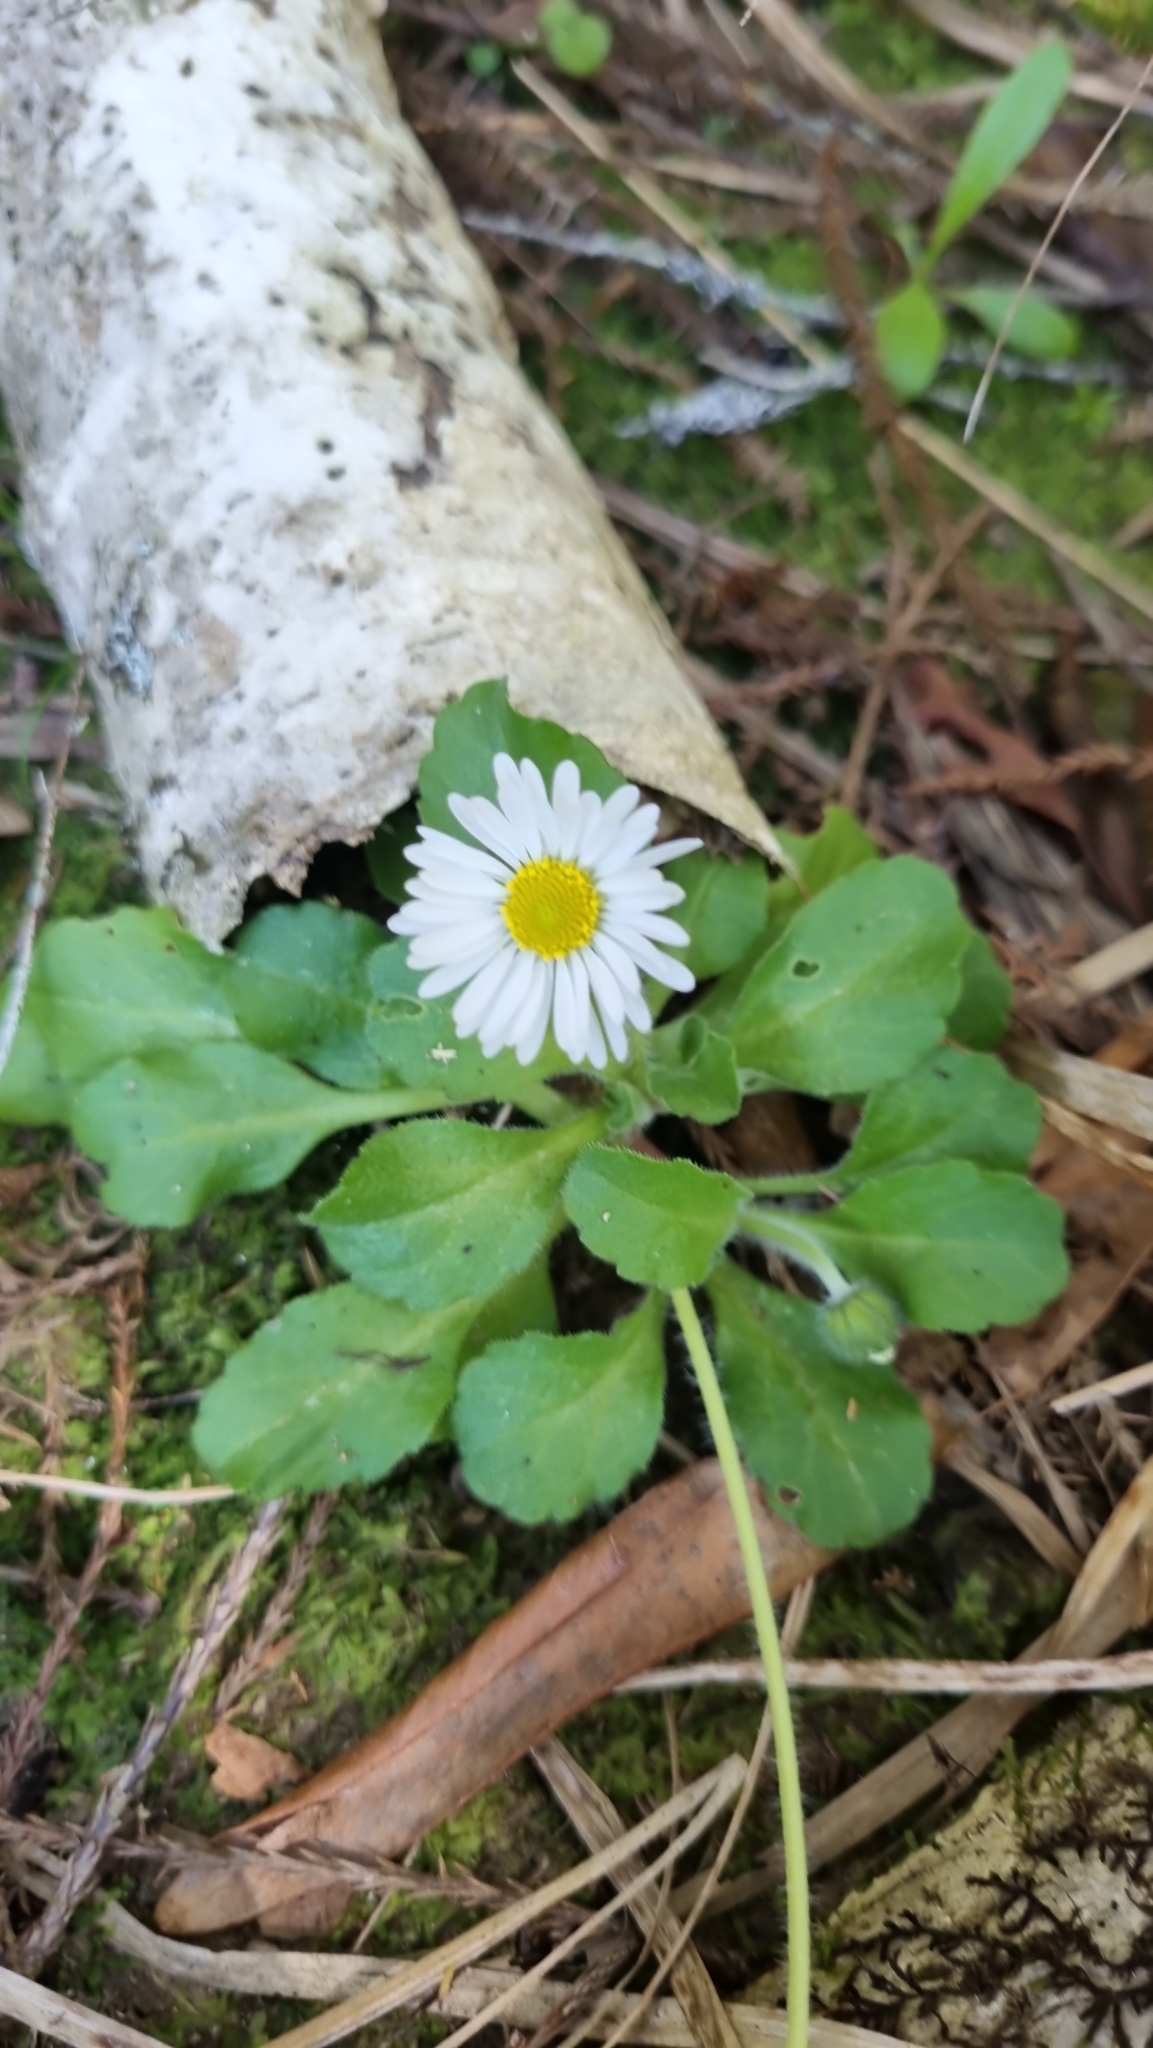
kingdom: Plantae
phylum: Tracheophyta
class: Magnoliopsida
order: Asterales
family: Asteraceae
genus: Bellis
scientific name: Bellis perennis
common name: Lawndaisy
